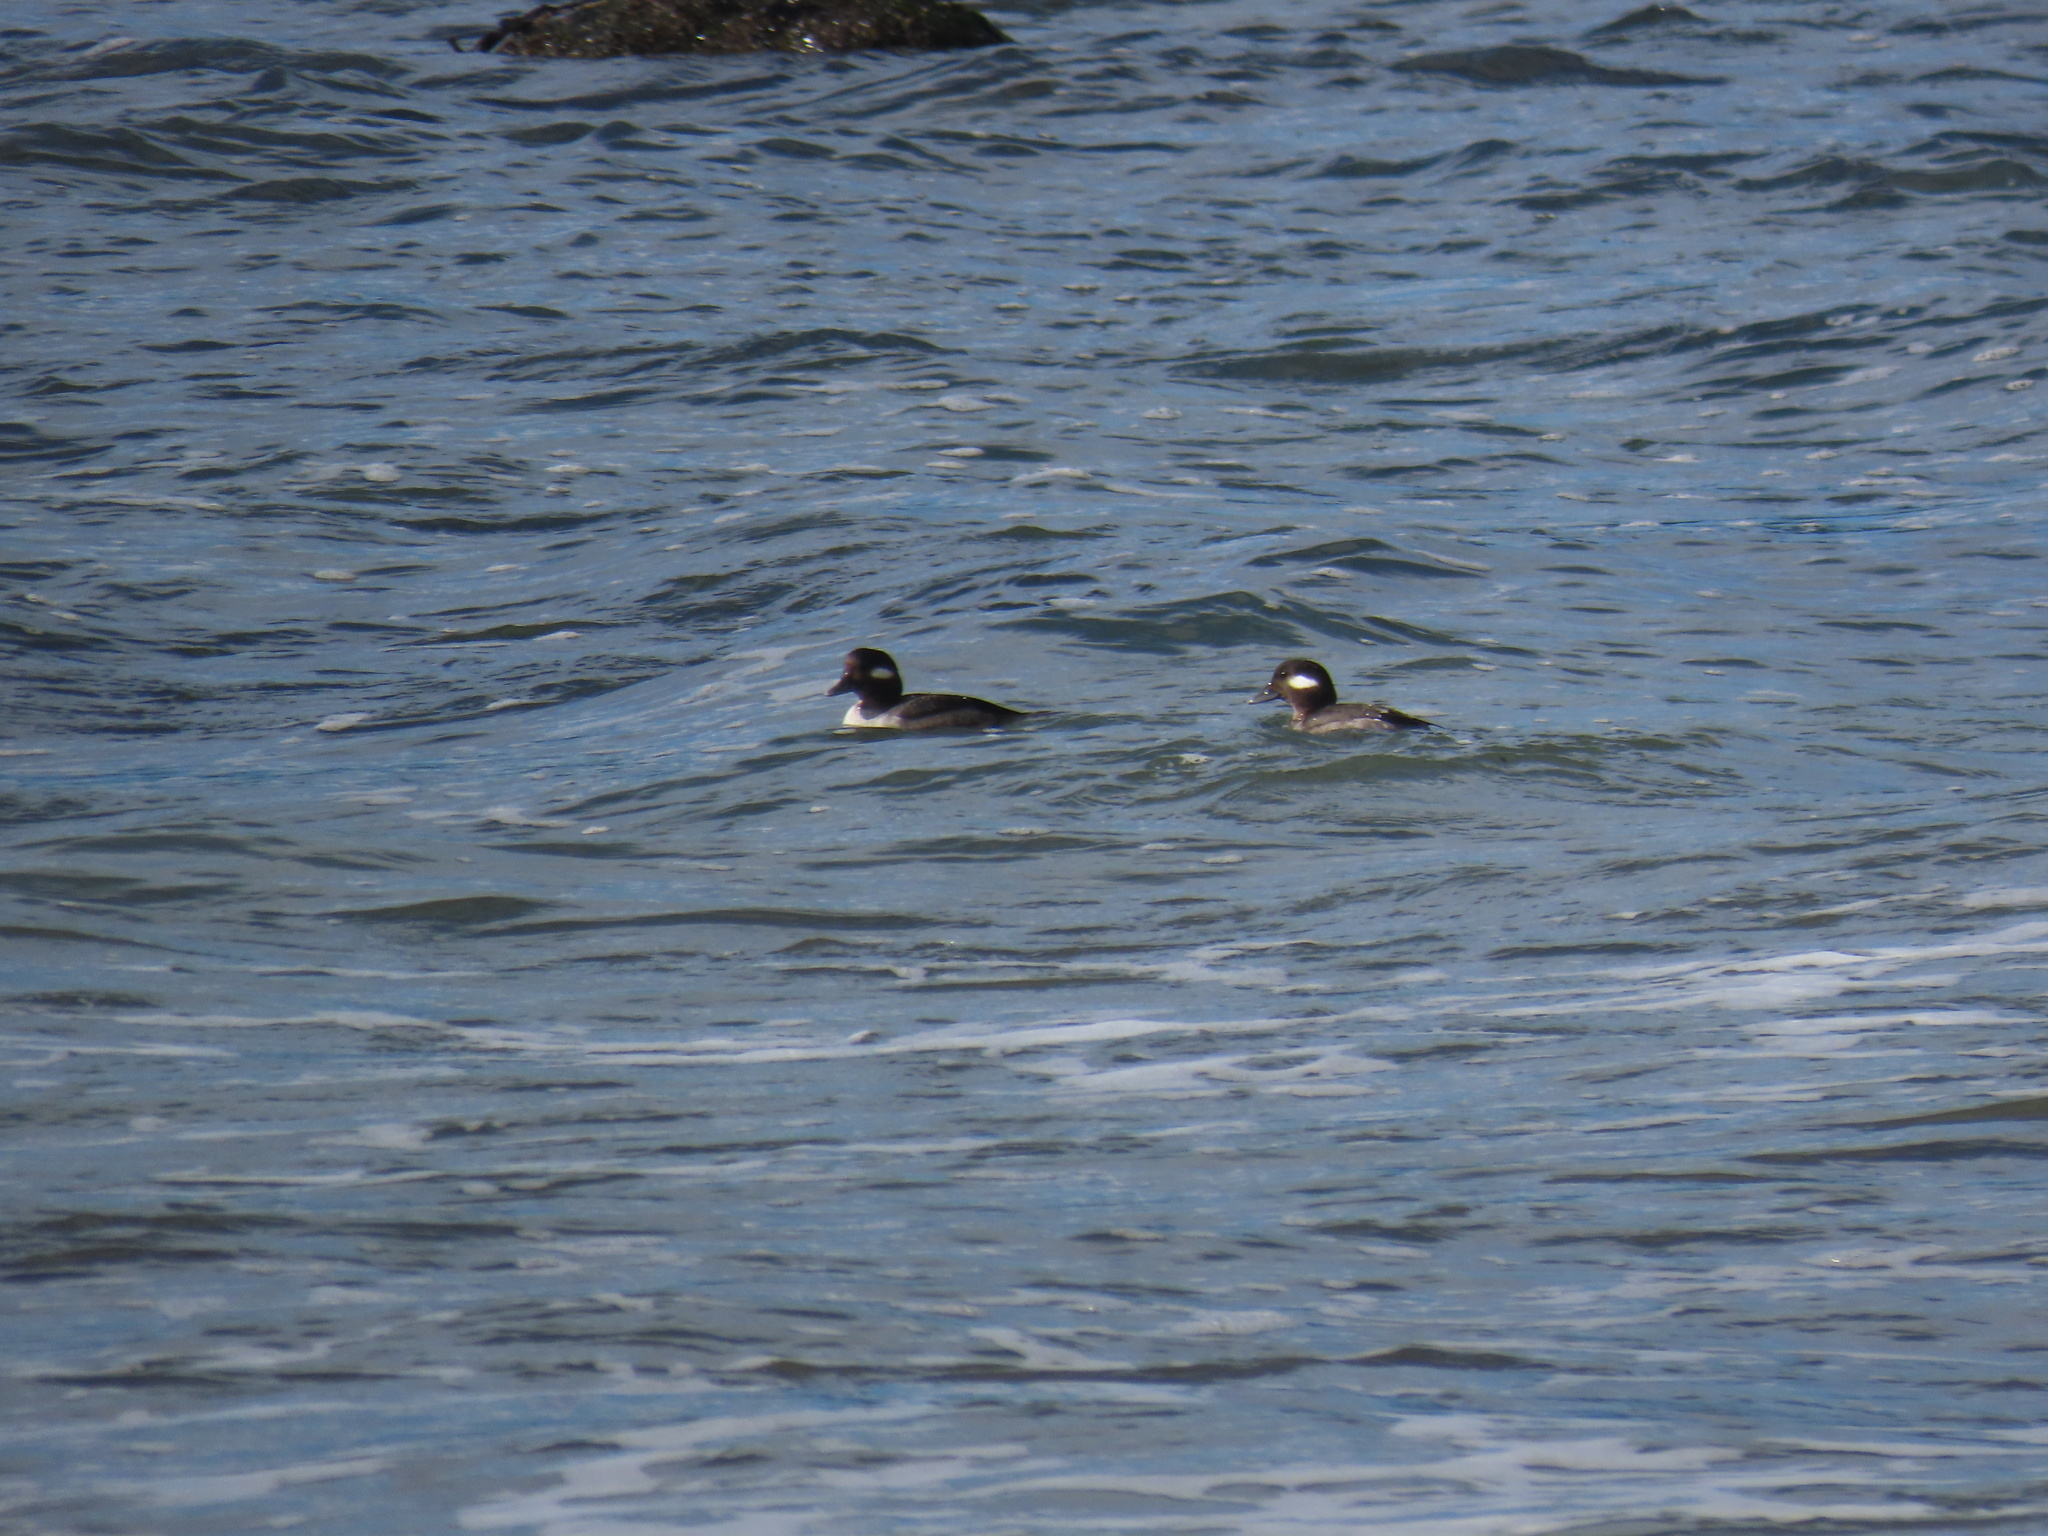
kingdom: Animalia
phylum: Chordata
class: Aves
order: Anseriformes
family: Anatidae
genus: Bucephala
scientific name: Bucephala albeola
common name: Bufflehead
